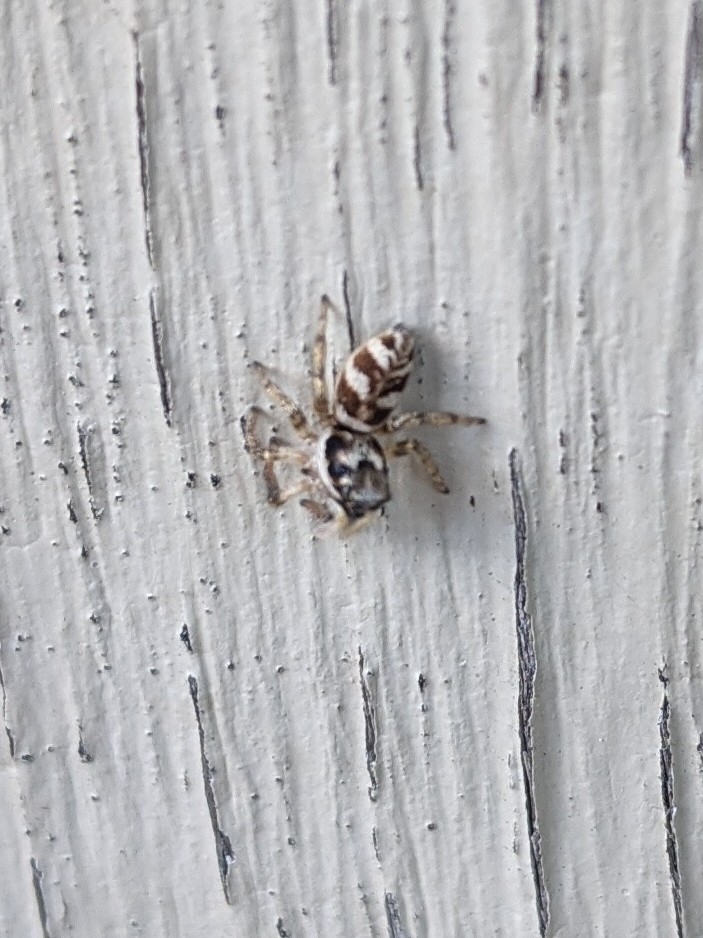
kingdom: Animalia
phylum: Arthropoda
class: Arachnida
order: Araneae
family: Salticidae
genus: Salticus
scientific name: Salticus scenicus
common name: Zebra jumper
